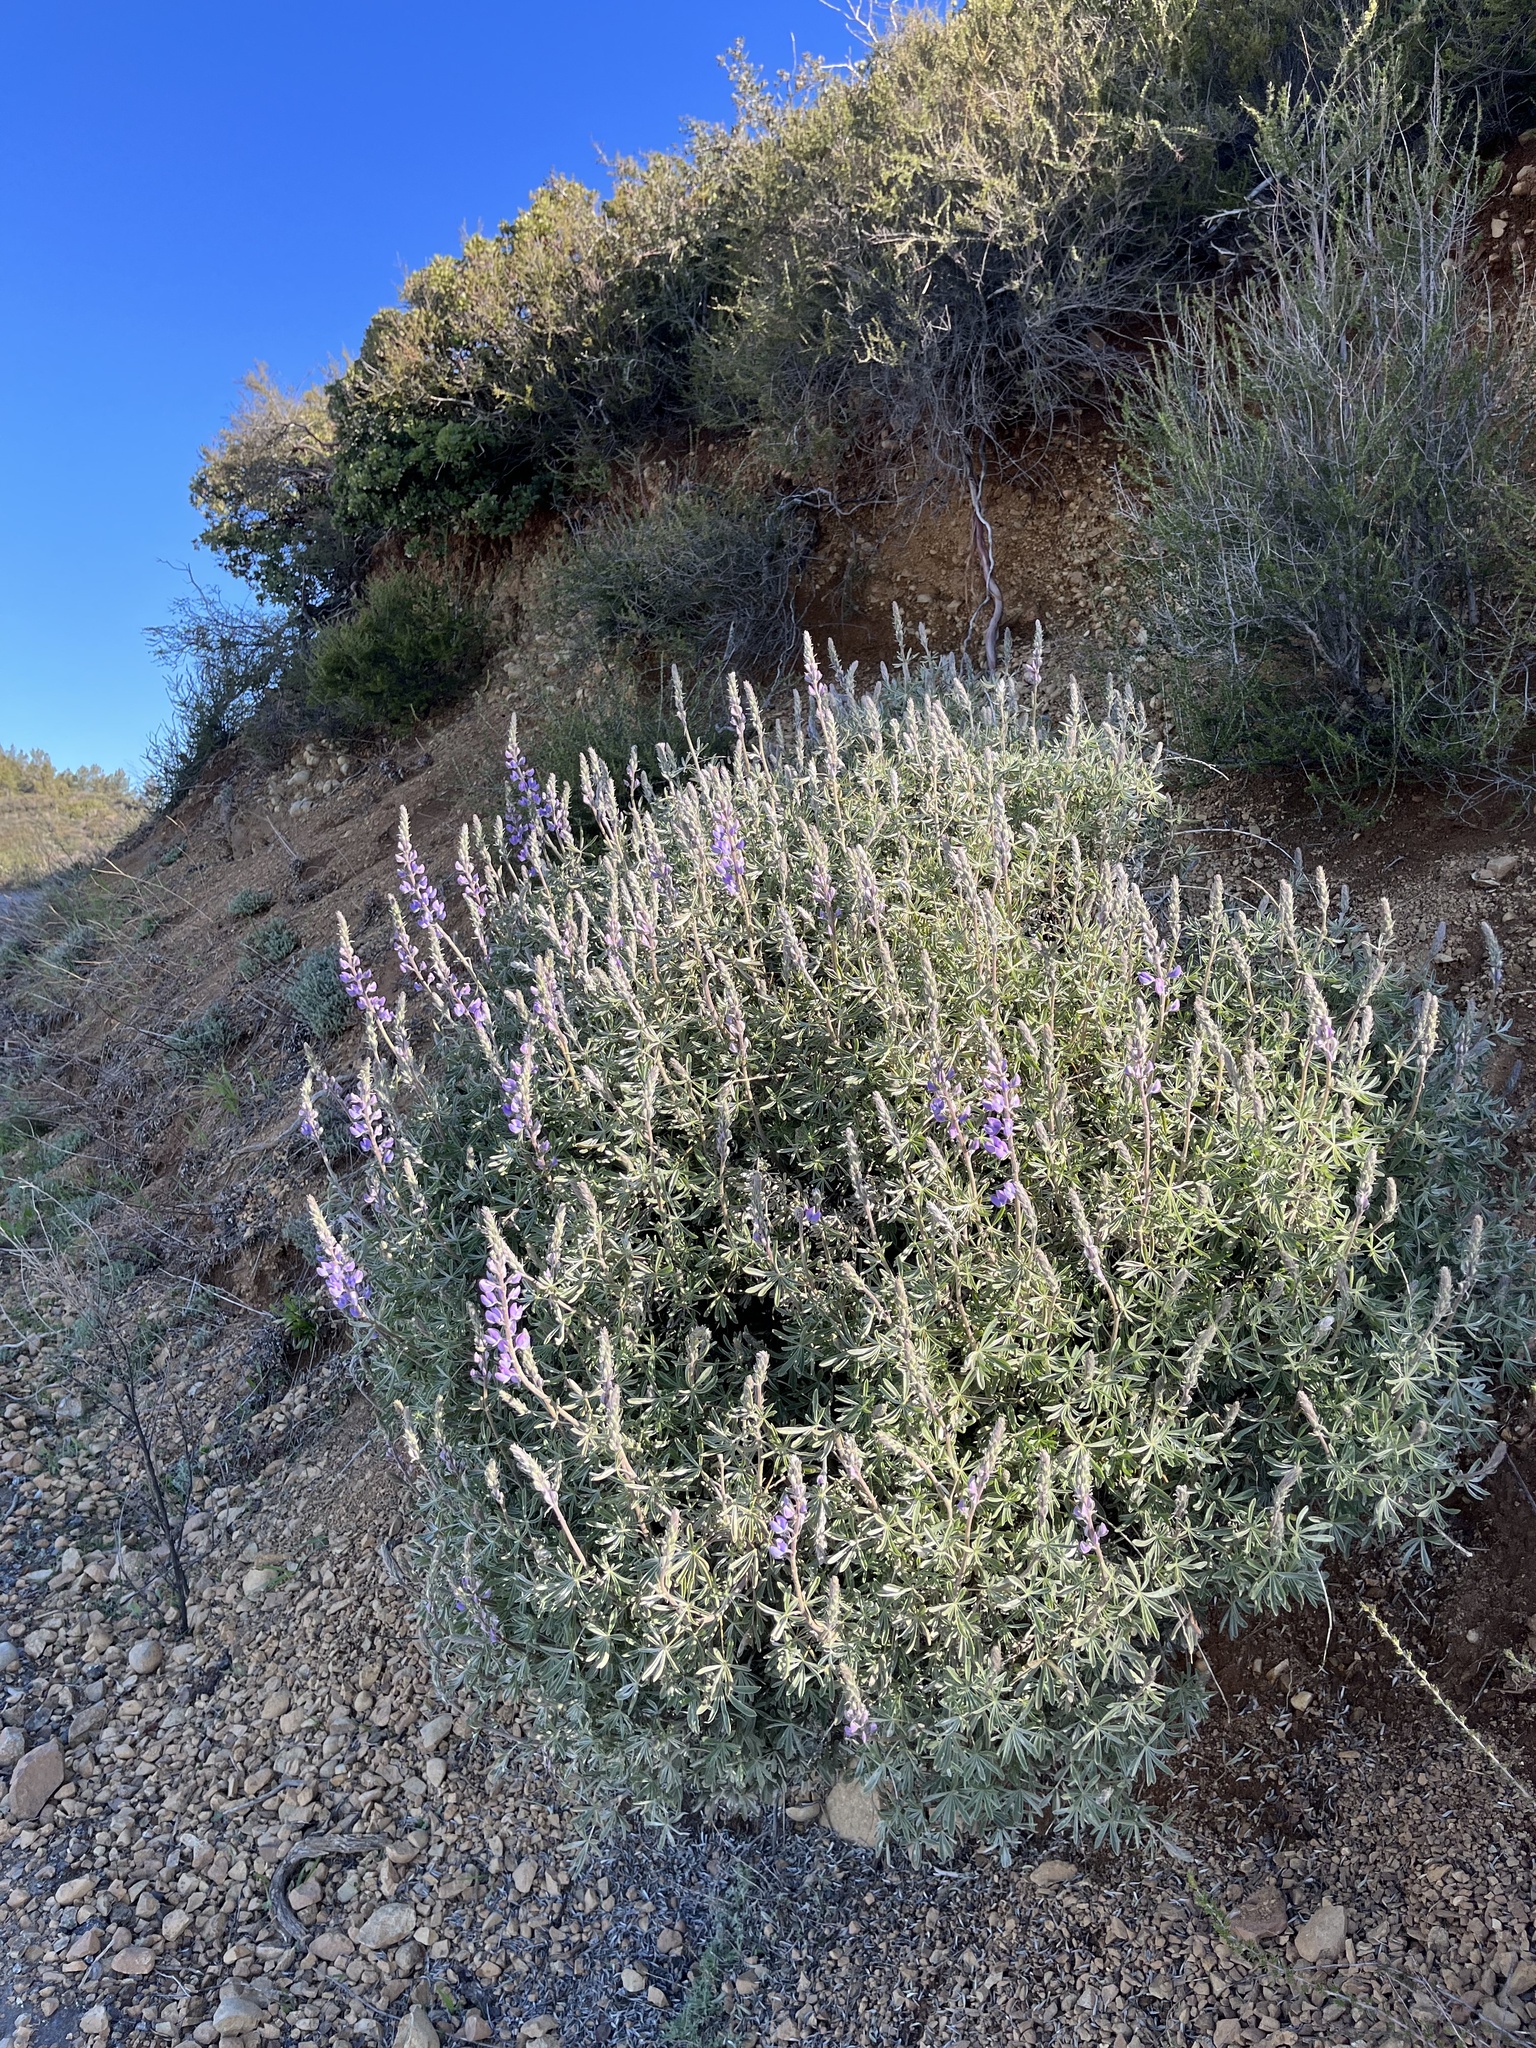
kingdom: Plantae
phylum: Tracheophyta
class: Magnoliopsida
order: Fabales
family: Fabaceae
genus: Lupinus
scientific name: Lupinus albifrons
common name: Foothill lupine
